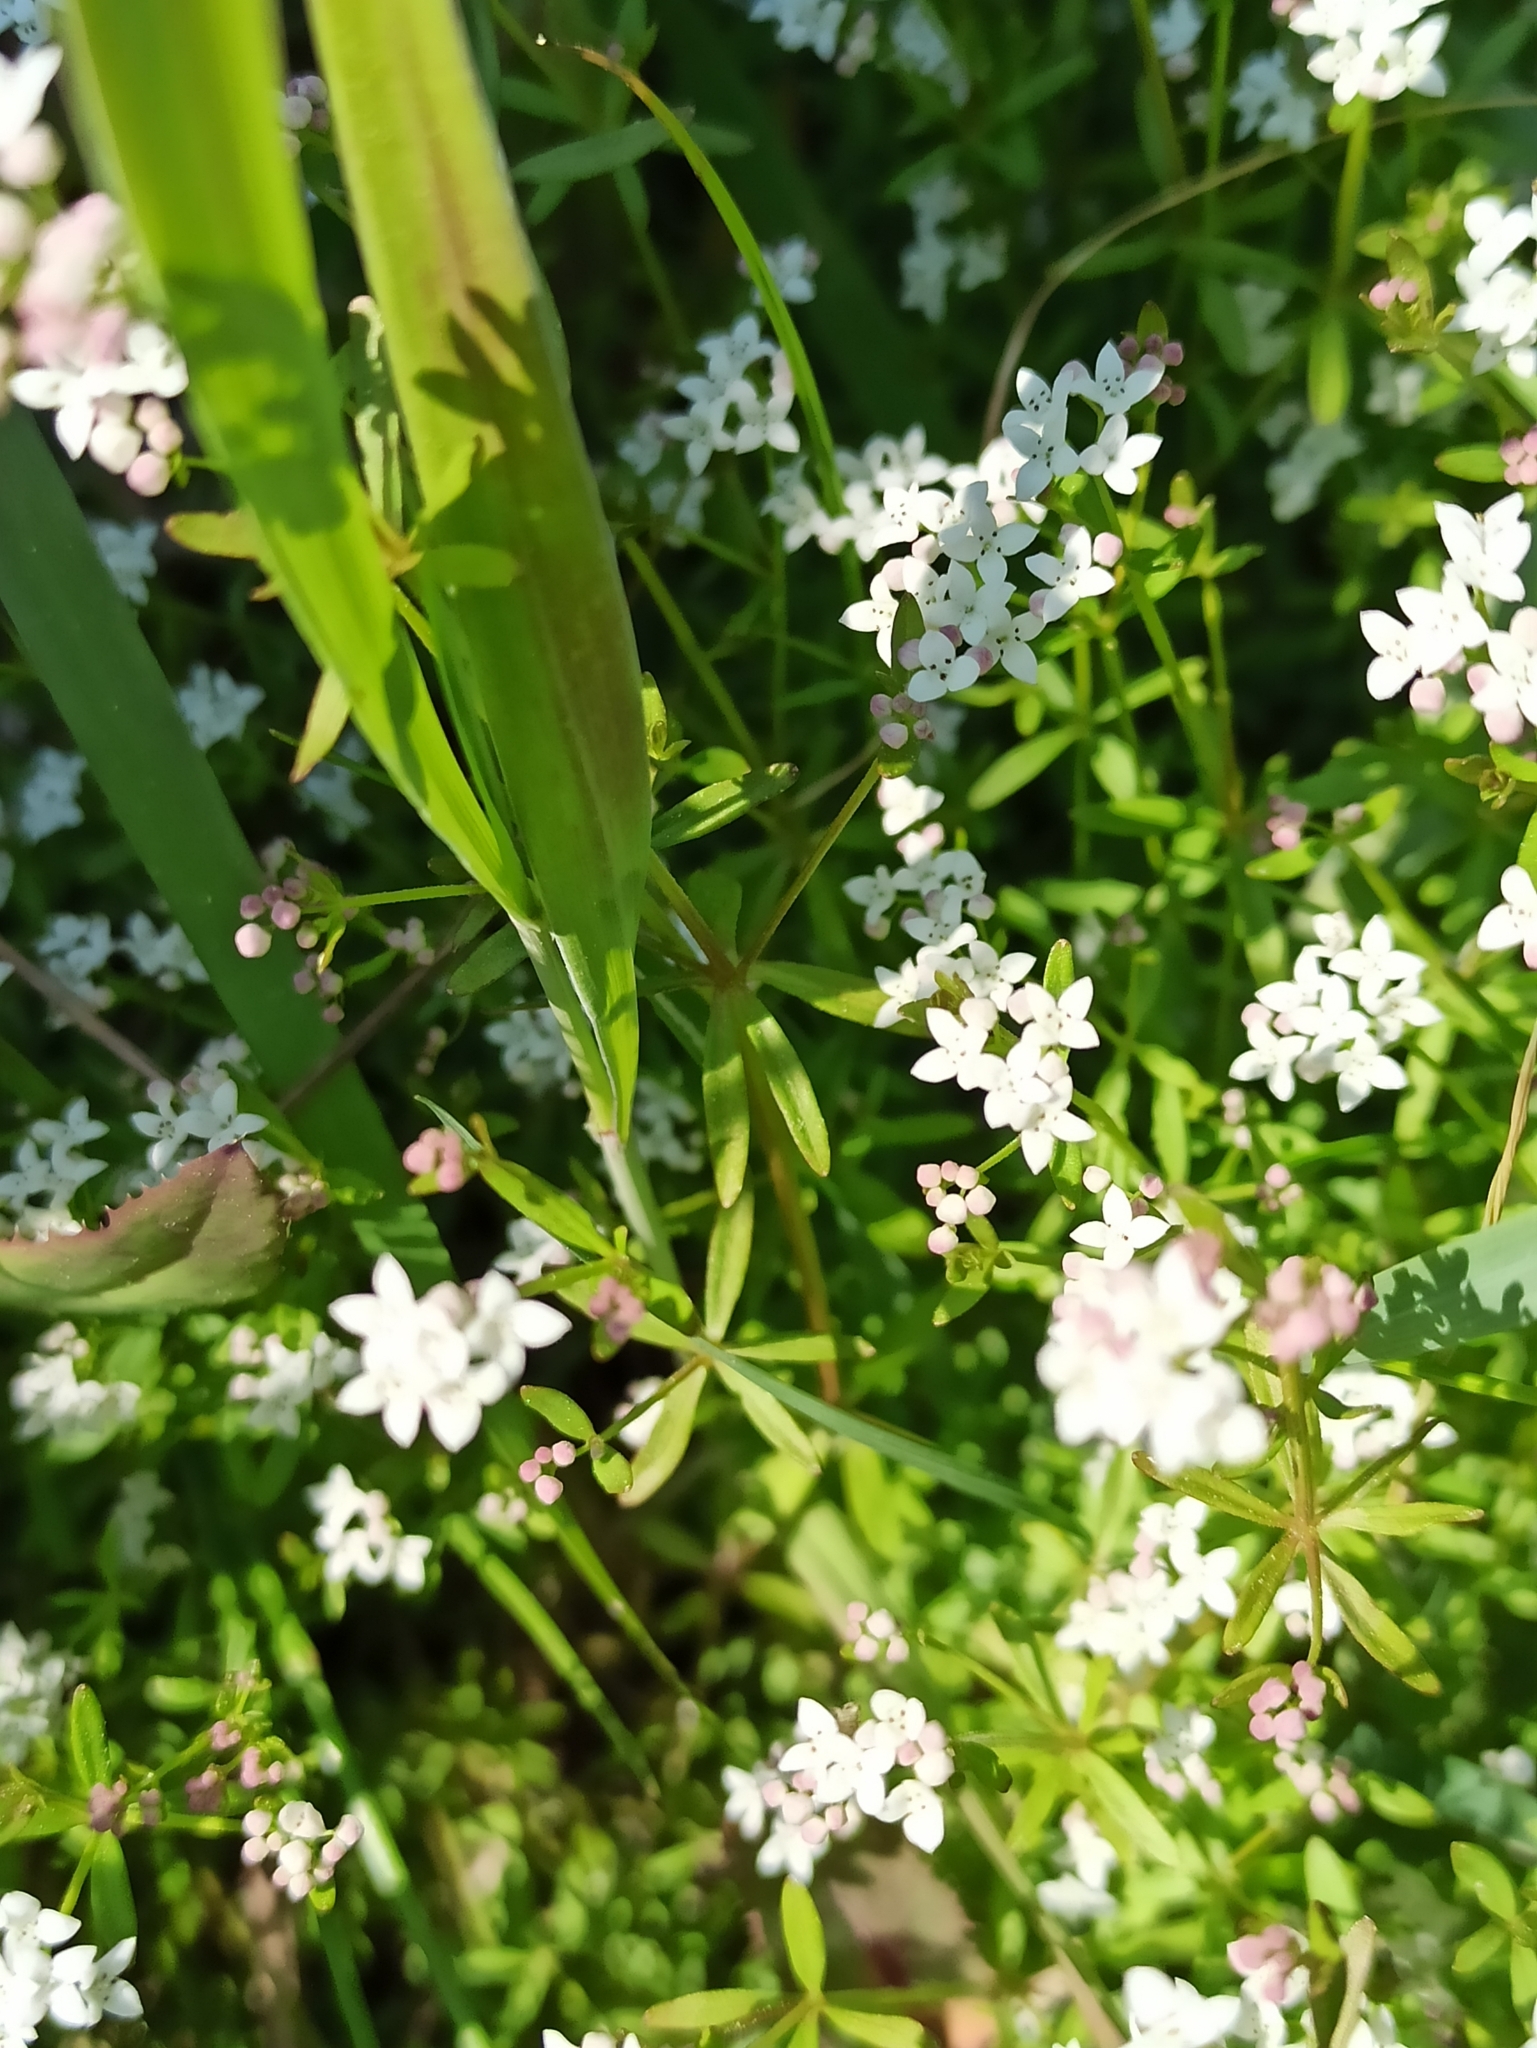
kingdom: Plantae
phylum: Tracheophyta
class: Magnoliopsida
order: Gentianales
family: Rubiaceae
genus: Galium
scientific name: Galium palustre
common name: Common marsh-bedstraw
